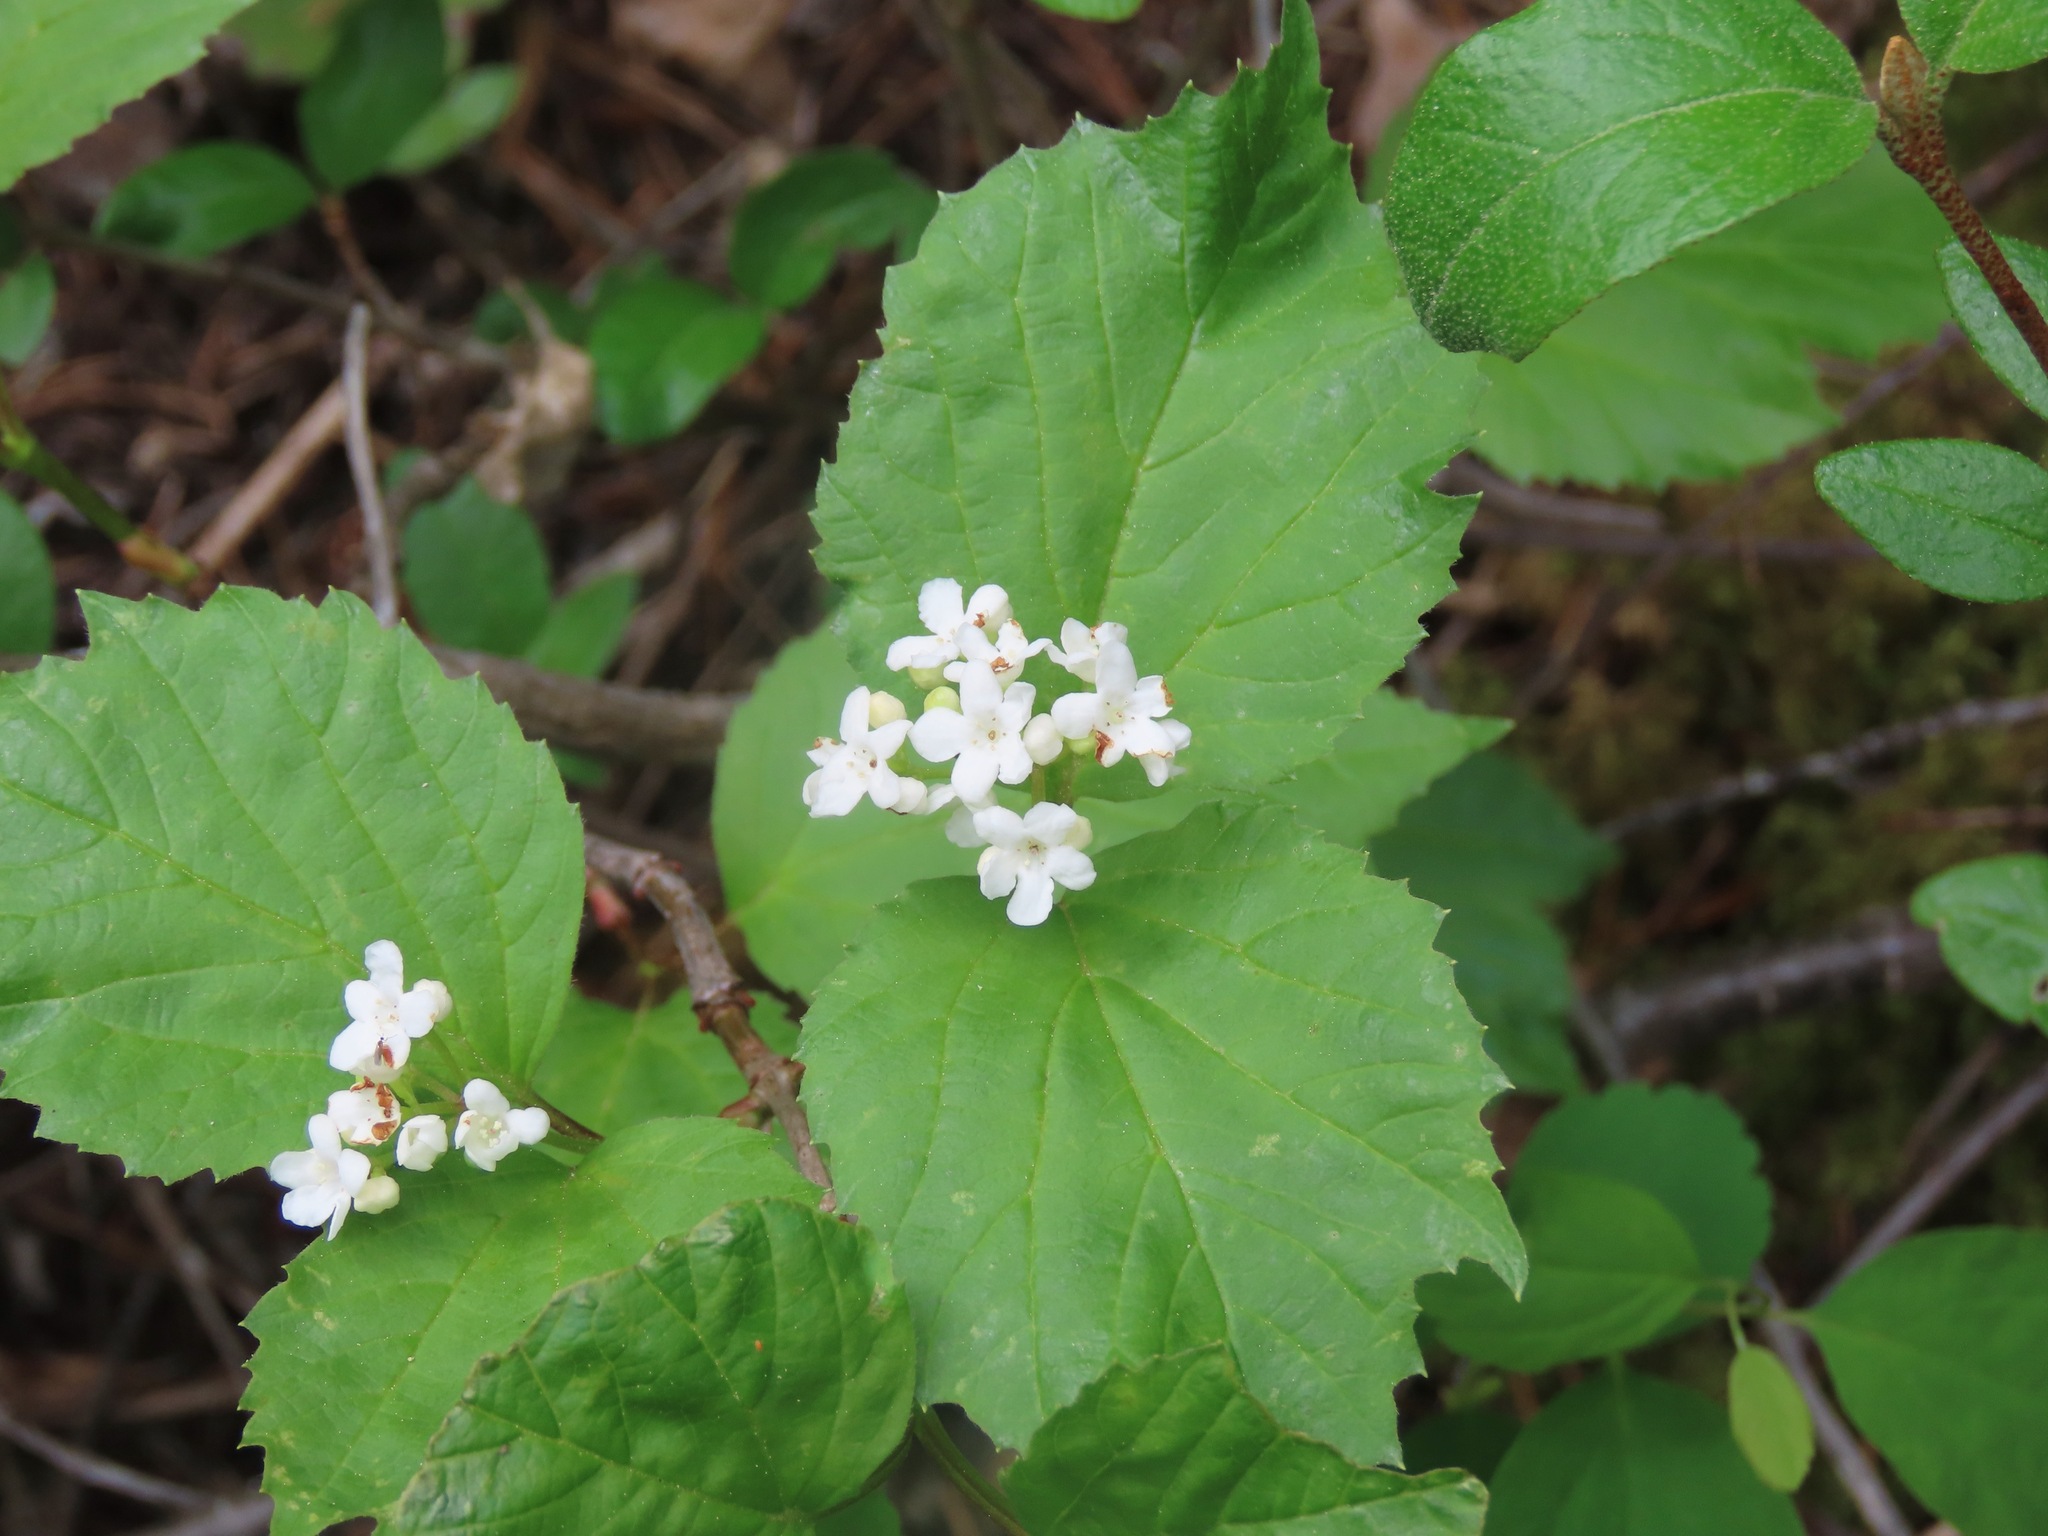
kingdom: Plantae
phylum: Tracheophyta
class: Magnoliopsida
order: Dipsacales
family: Viburnaceae
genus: Viburnum
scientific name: Viburnum edule
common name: Mooseberry
